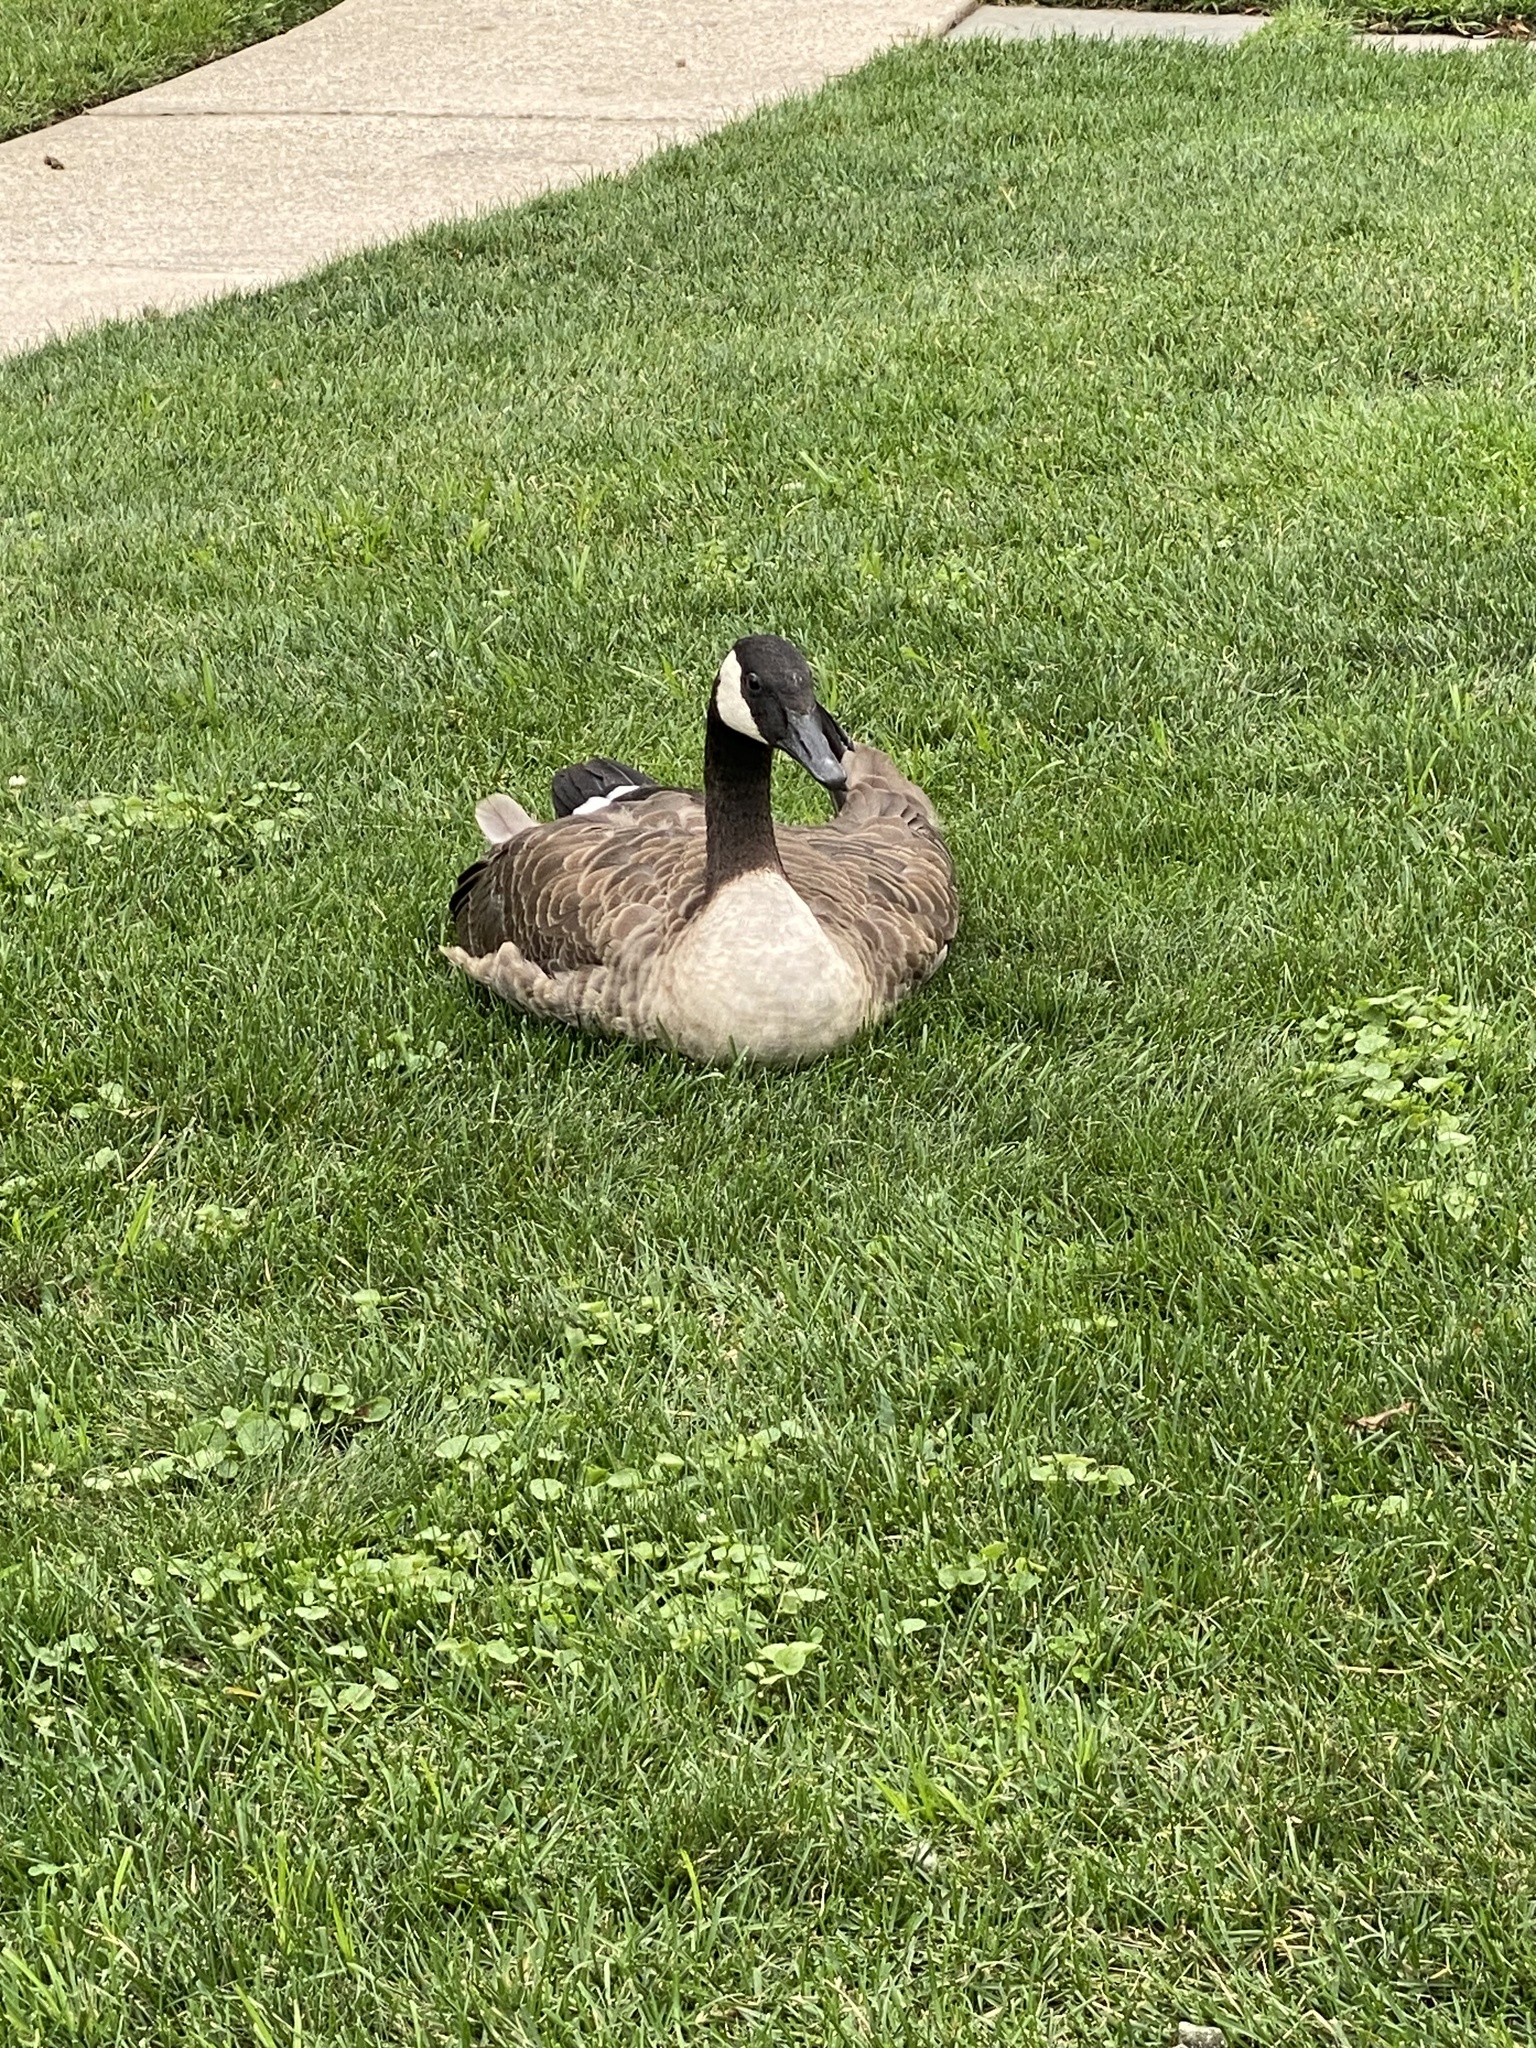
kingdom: Animalia
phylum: Chordata
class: Aves
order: Anseriformes
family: Anatidae
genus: Branta
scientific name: Branta canadensis
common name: Canada goose
